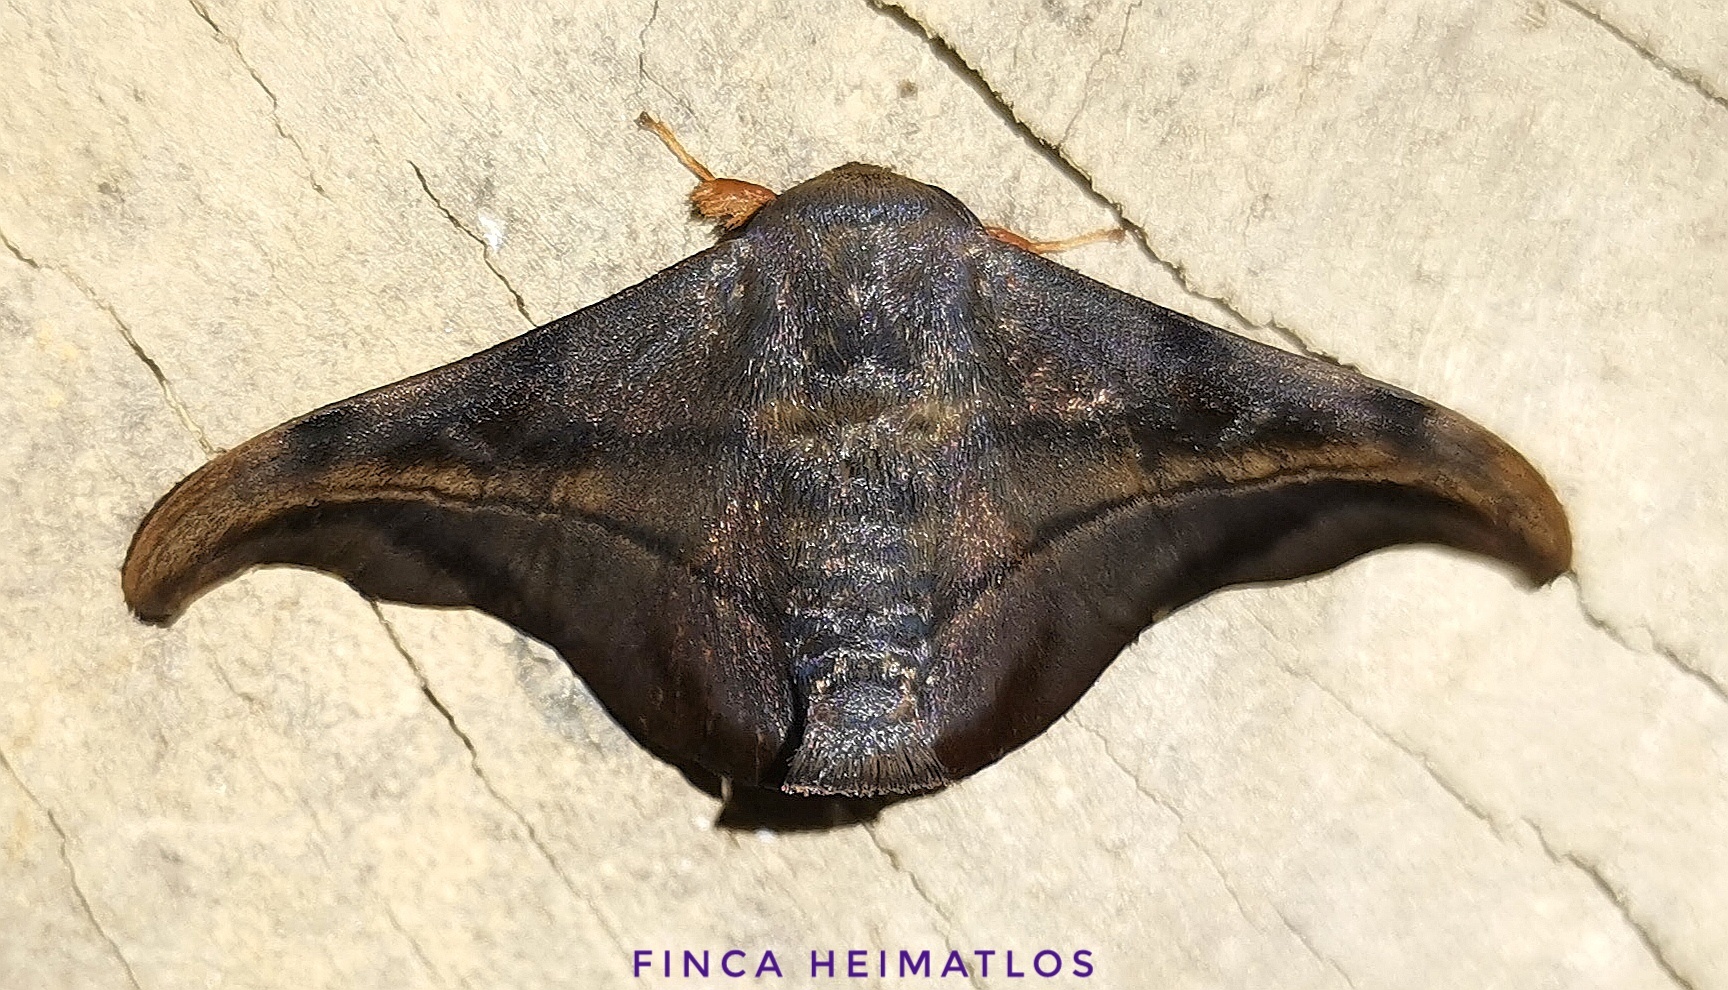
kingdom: Animalia
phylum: Arthropoda
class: Insecta
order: Lepidoptera
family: Mimallonidae
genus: Thaelia
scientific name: Thaelia subrubiginosa
